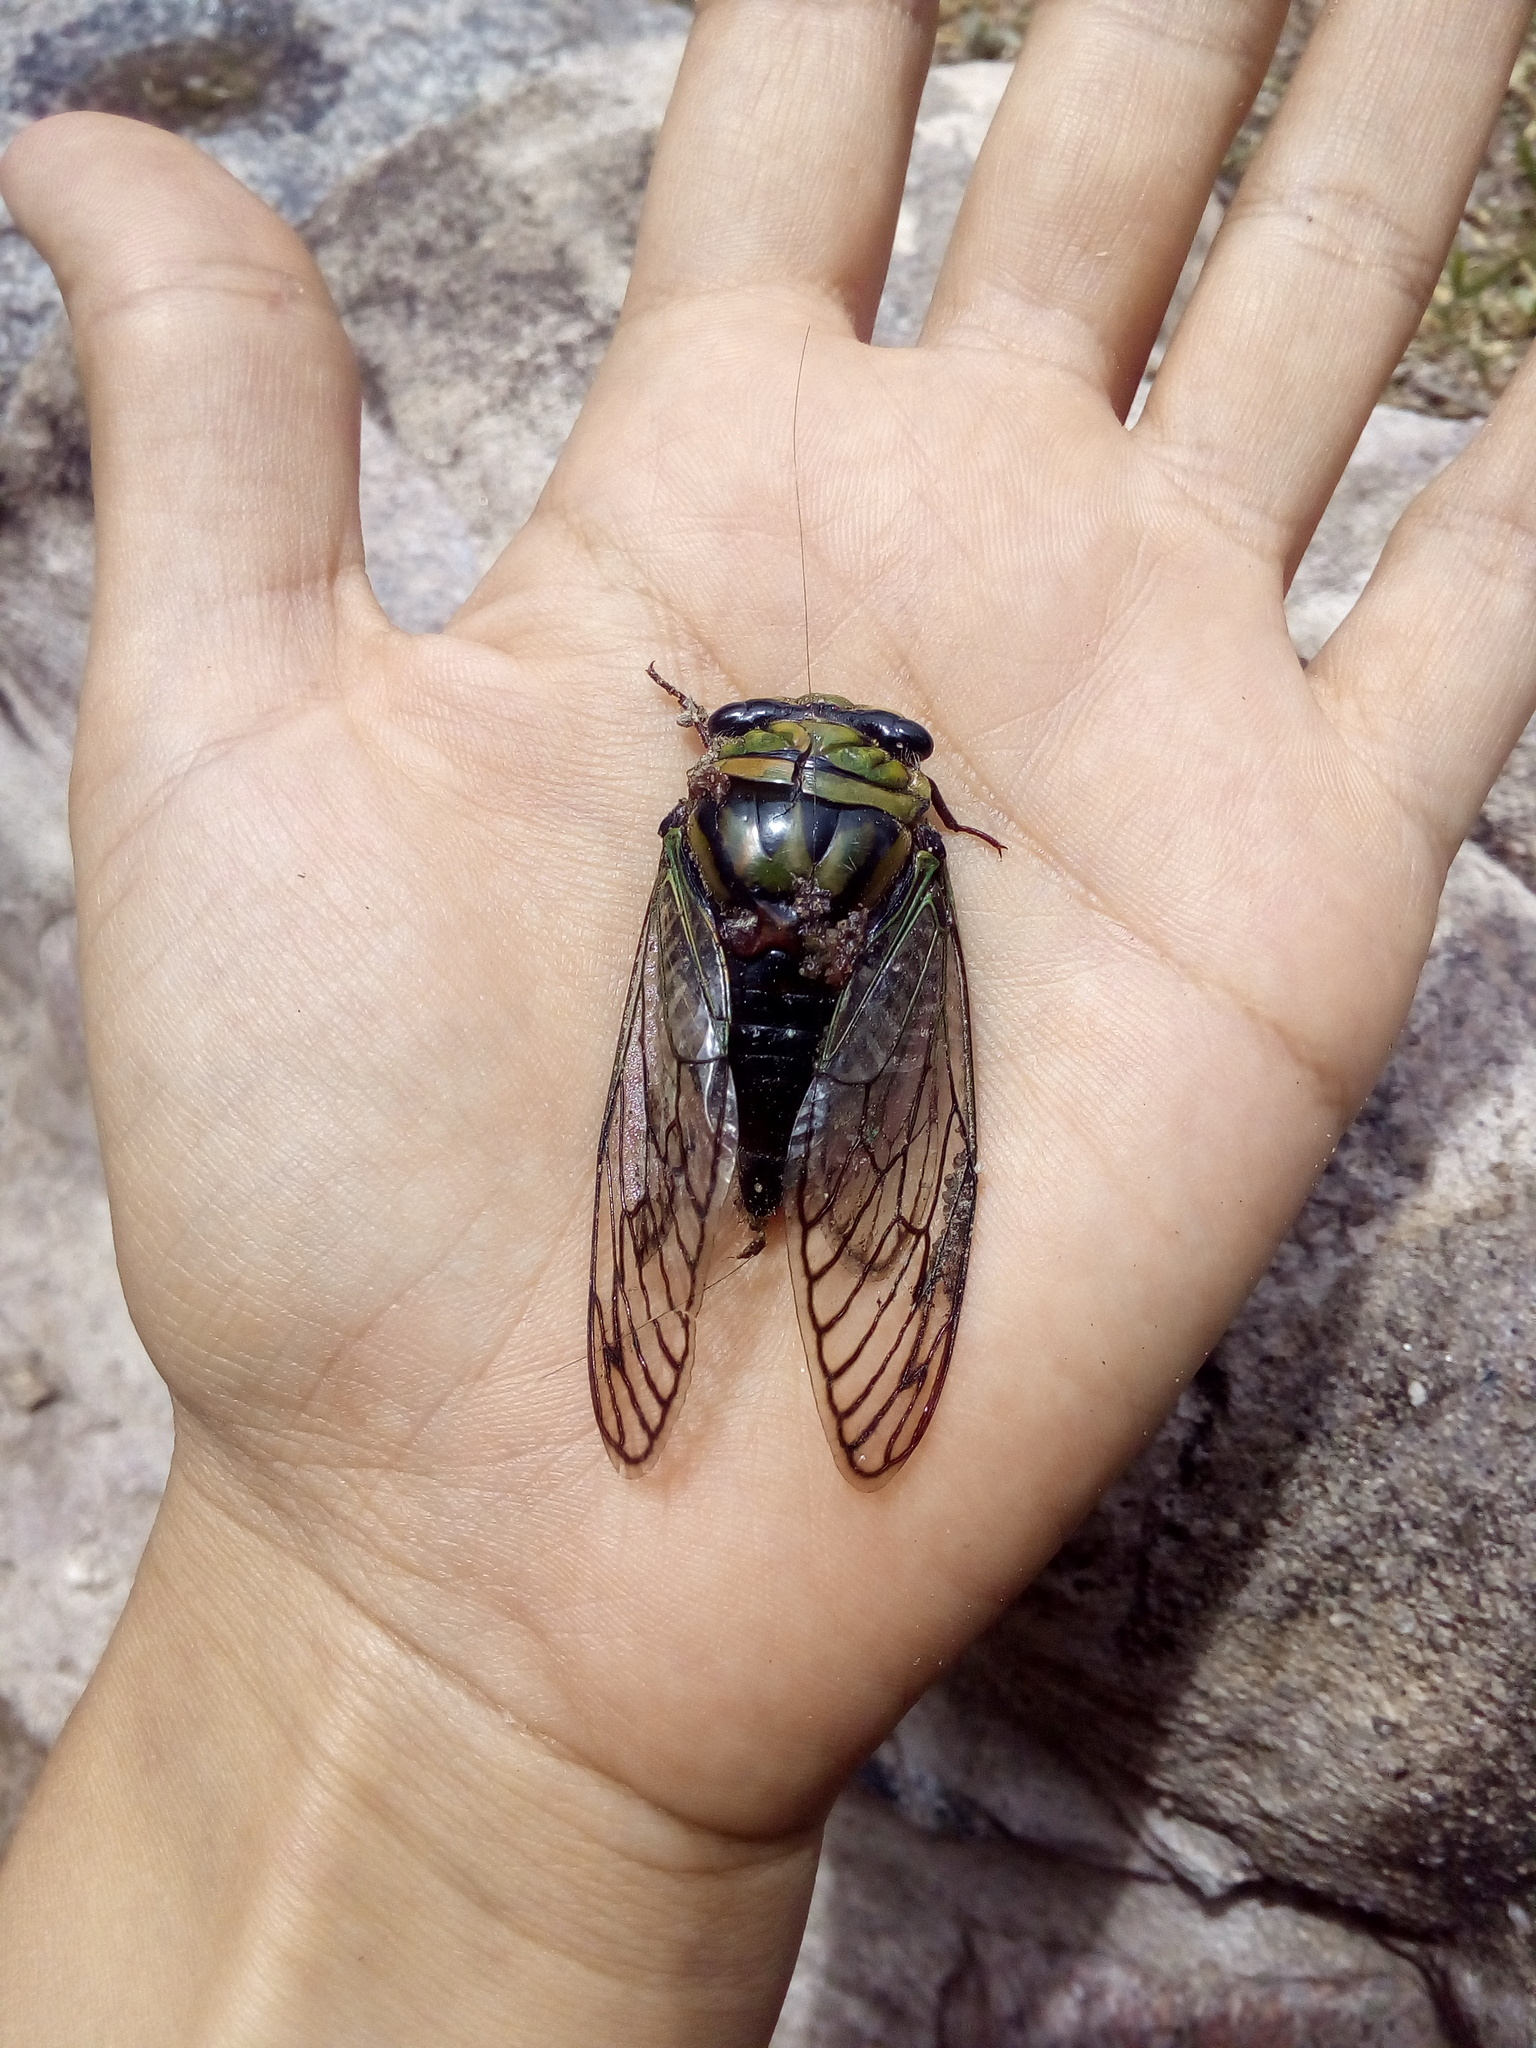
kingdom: Animalia
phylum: Arthropoda
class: Insecta
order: Hemiptera
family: Cicadidae
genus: Guyalna
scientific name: Guyalna bonaerensis
